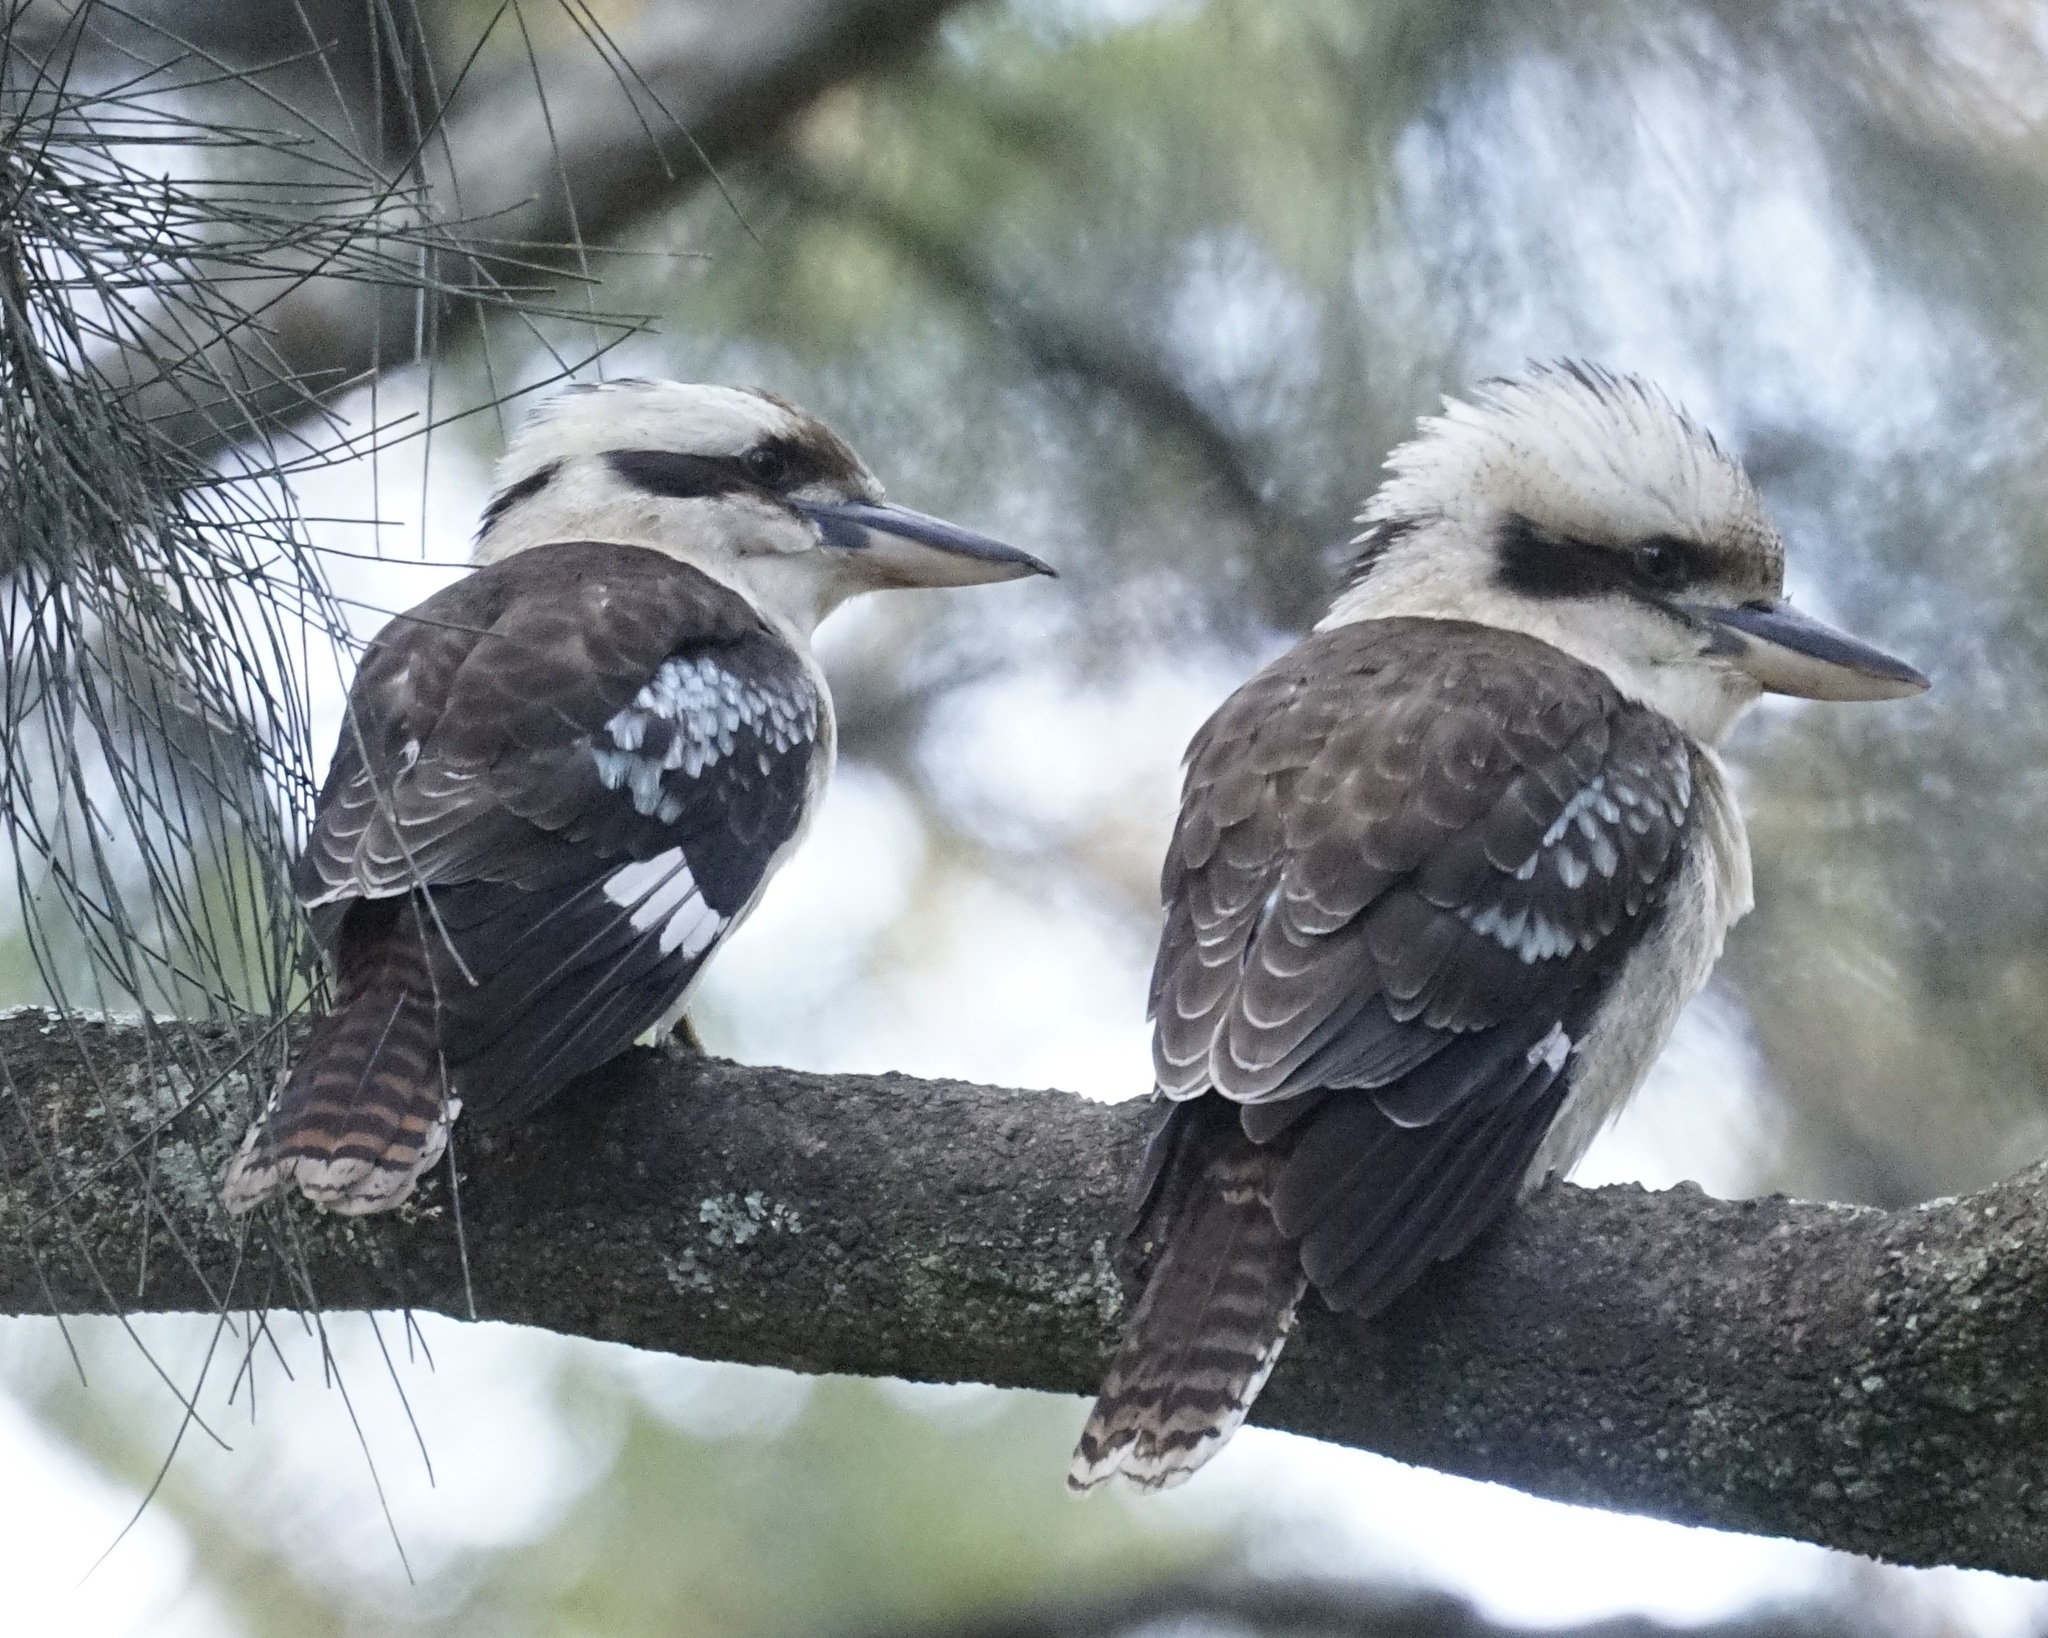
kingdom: Animalia
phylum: Chordata
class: Aves
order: Coraciiformes
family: Alcedinidae
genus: Dacelo
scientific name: Dacelo novaeguineae
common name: Laughing kookaburra
